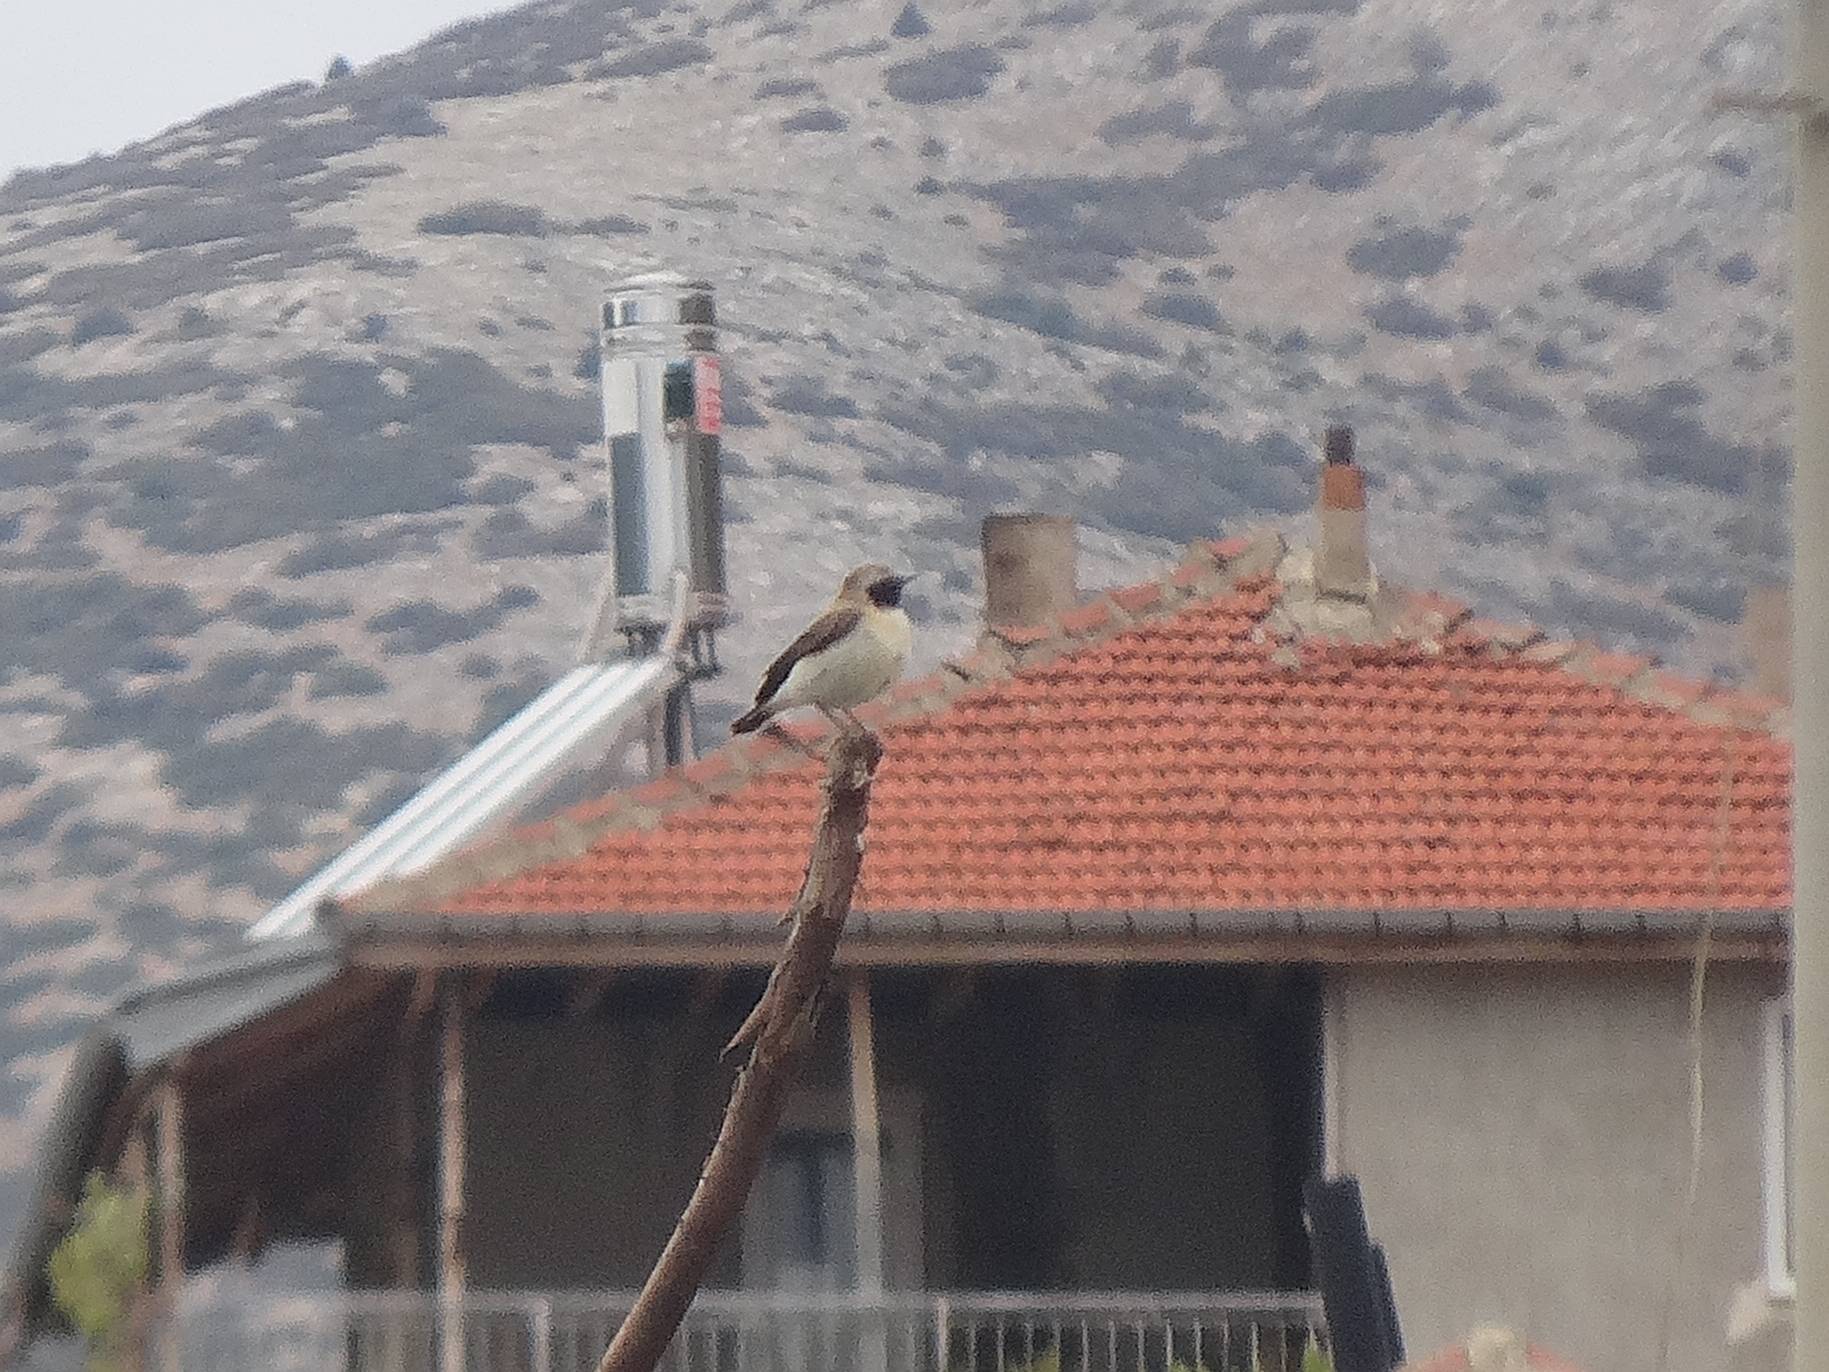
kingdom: Animalia
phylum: Chordata
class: Aves
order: Passeriformes
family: Muscicapidae
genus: Oenanthe
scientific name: Oenanthe hispanica
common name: Black-eared wheatear
